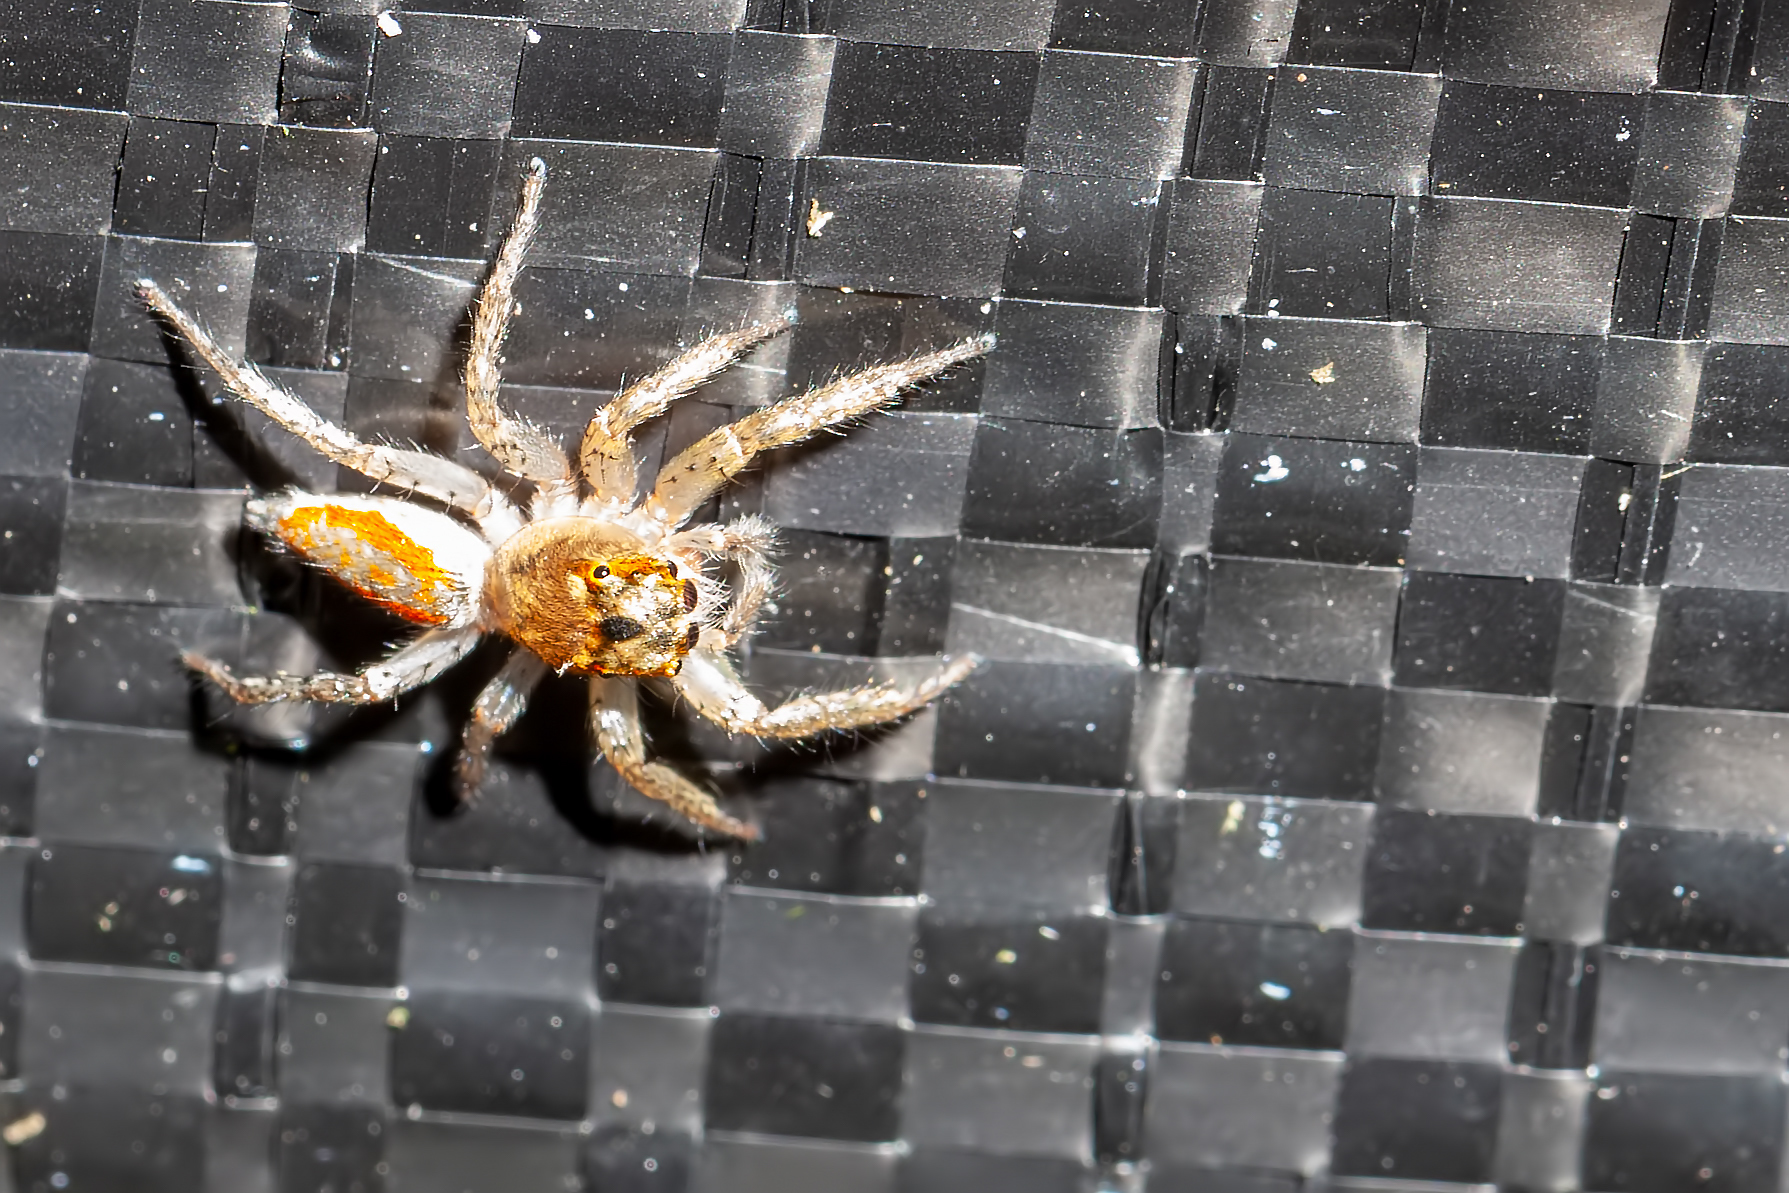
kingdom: Animalia
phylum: Arthropoda
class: Arachnida
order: Araneae
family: Salticidae
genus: Maevia
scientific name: Maevia inclemens
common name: Dimorphic jumper
